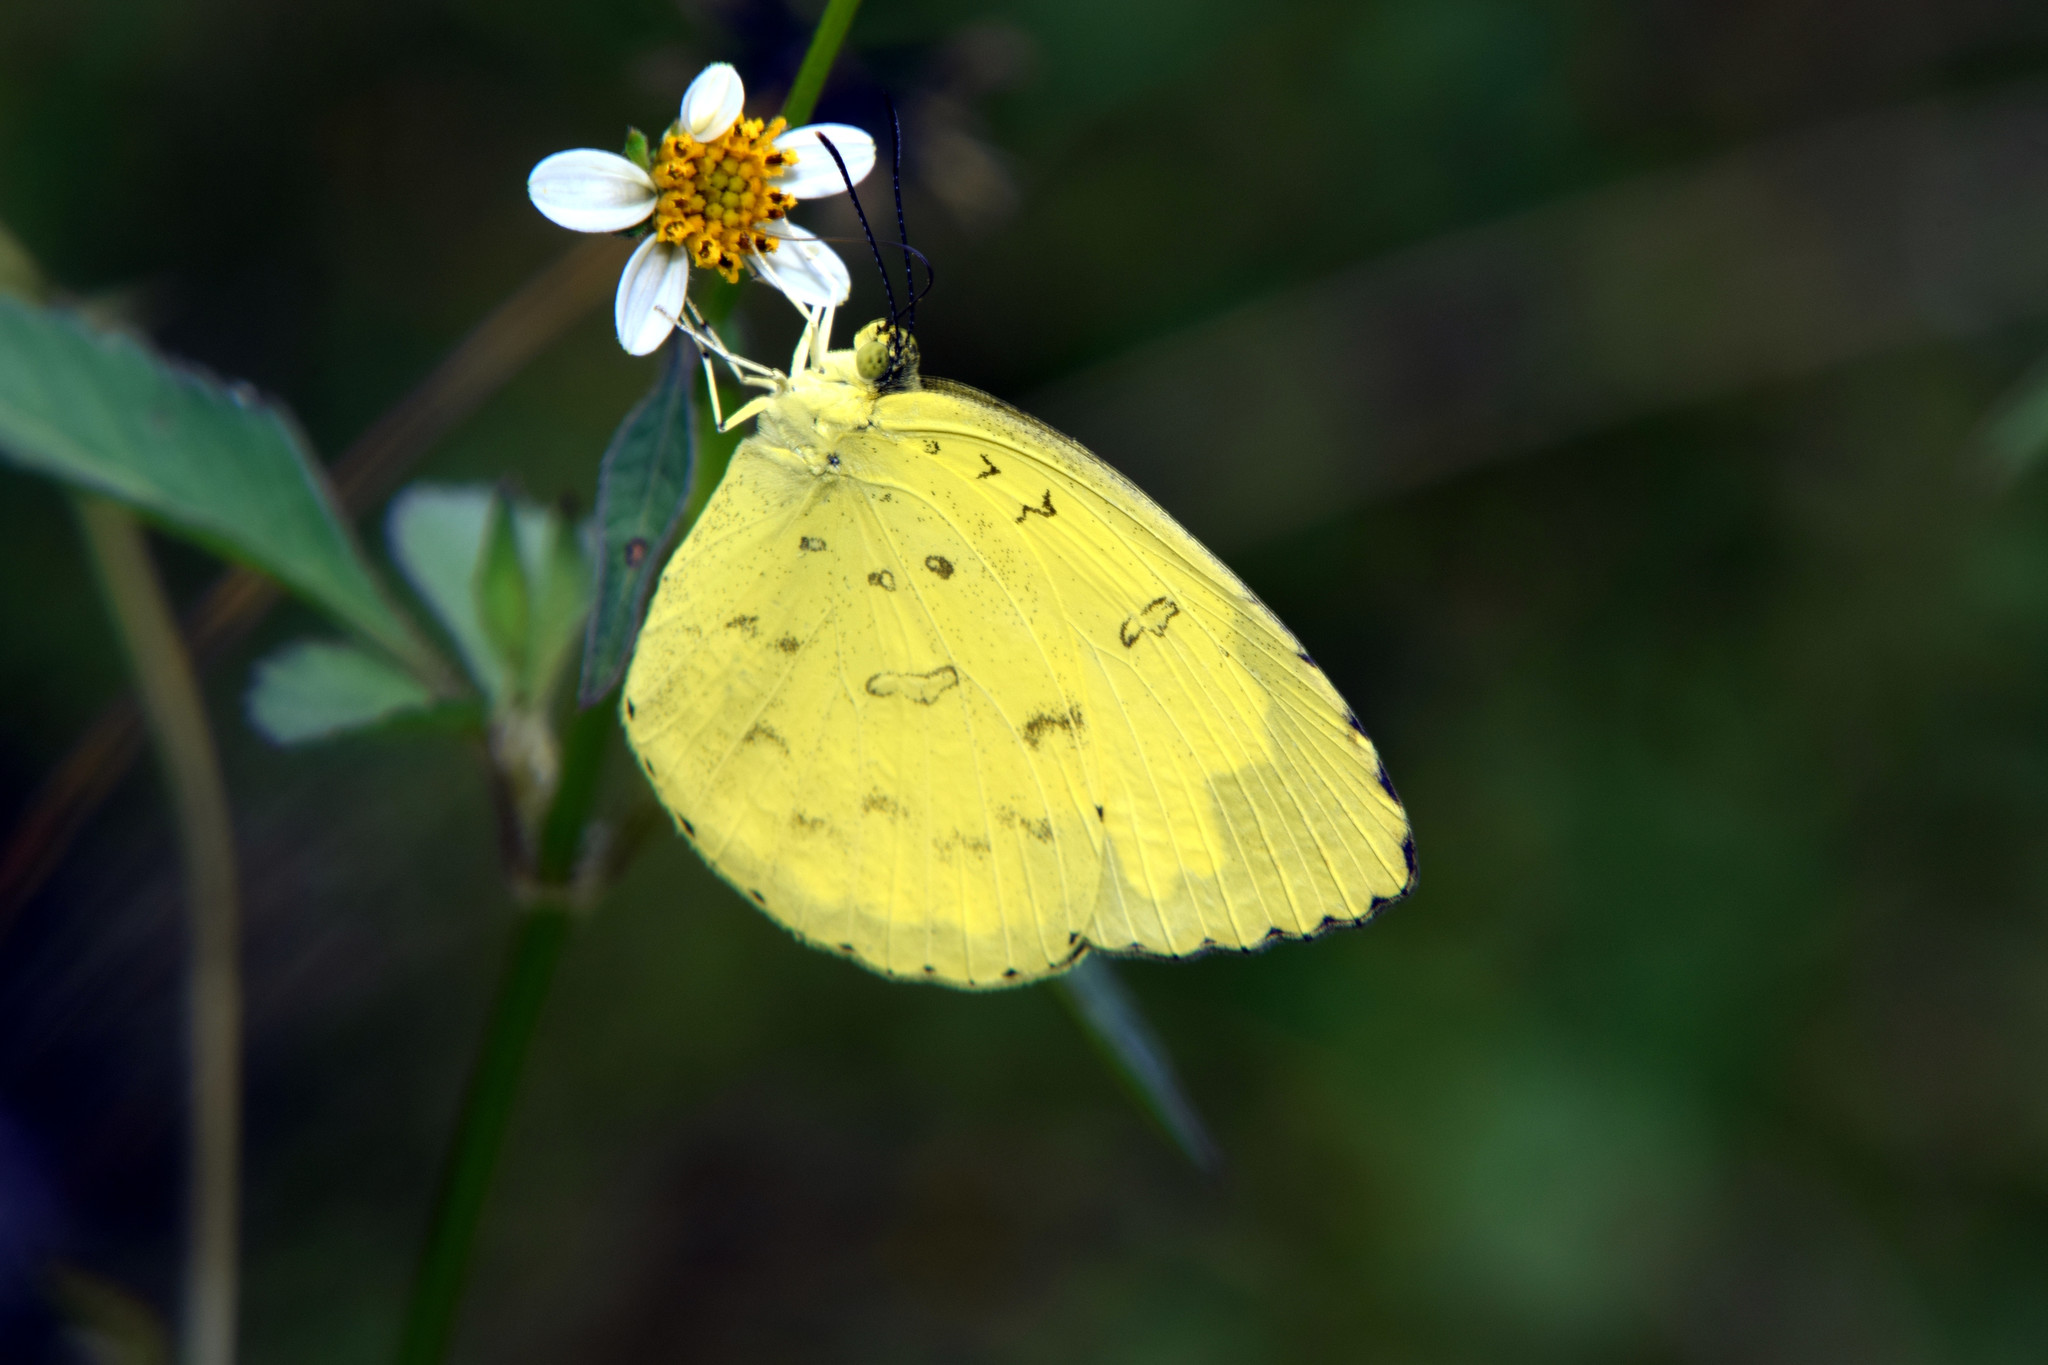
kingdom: Animalia
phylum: Arthropoda
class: Insecta
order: Lepidoptera
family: Pieridae
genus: Eurema
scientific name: Eurema blanda
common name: Three-spot grass yellow
